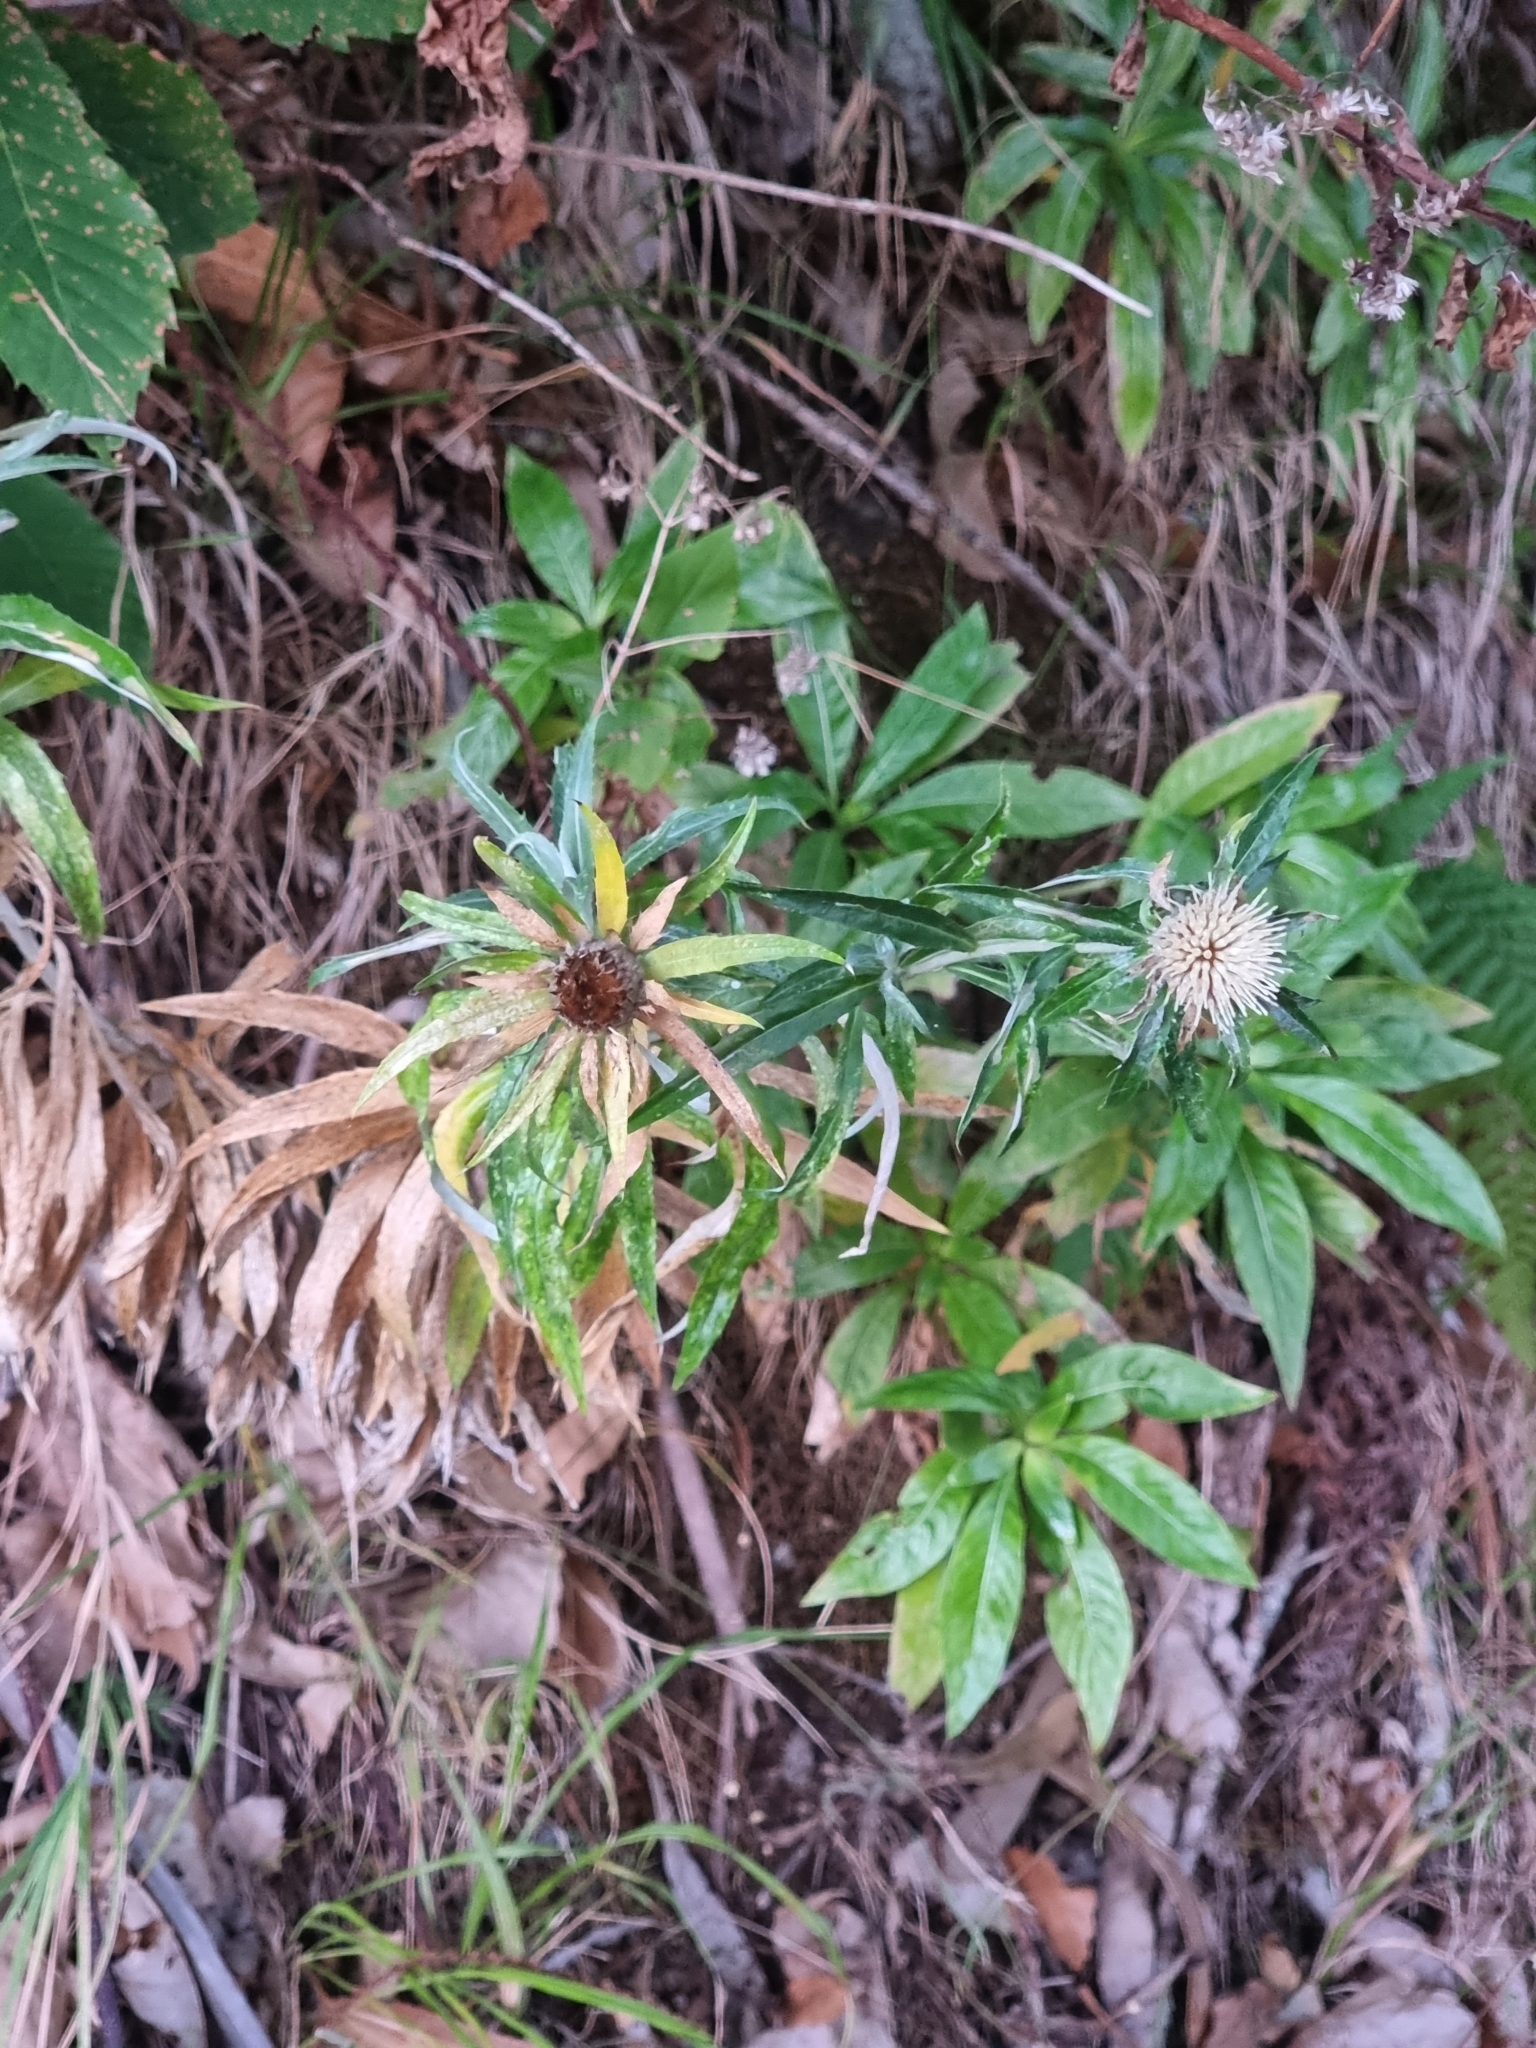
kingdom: Plantae
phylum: Tracheophyta
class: Magnoliopsida
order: Asterales
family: Asteraceae
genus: Carlina
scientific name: Carlina salicifolia
